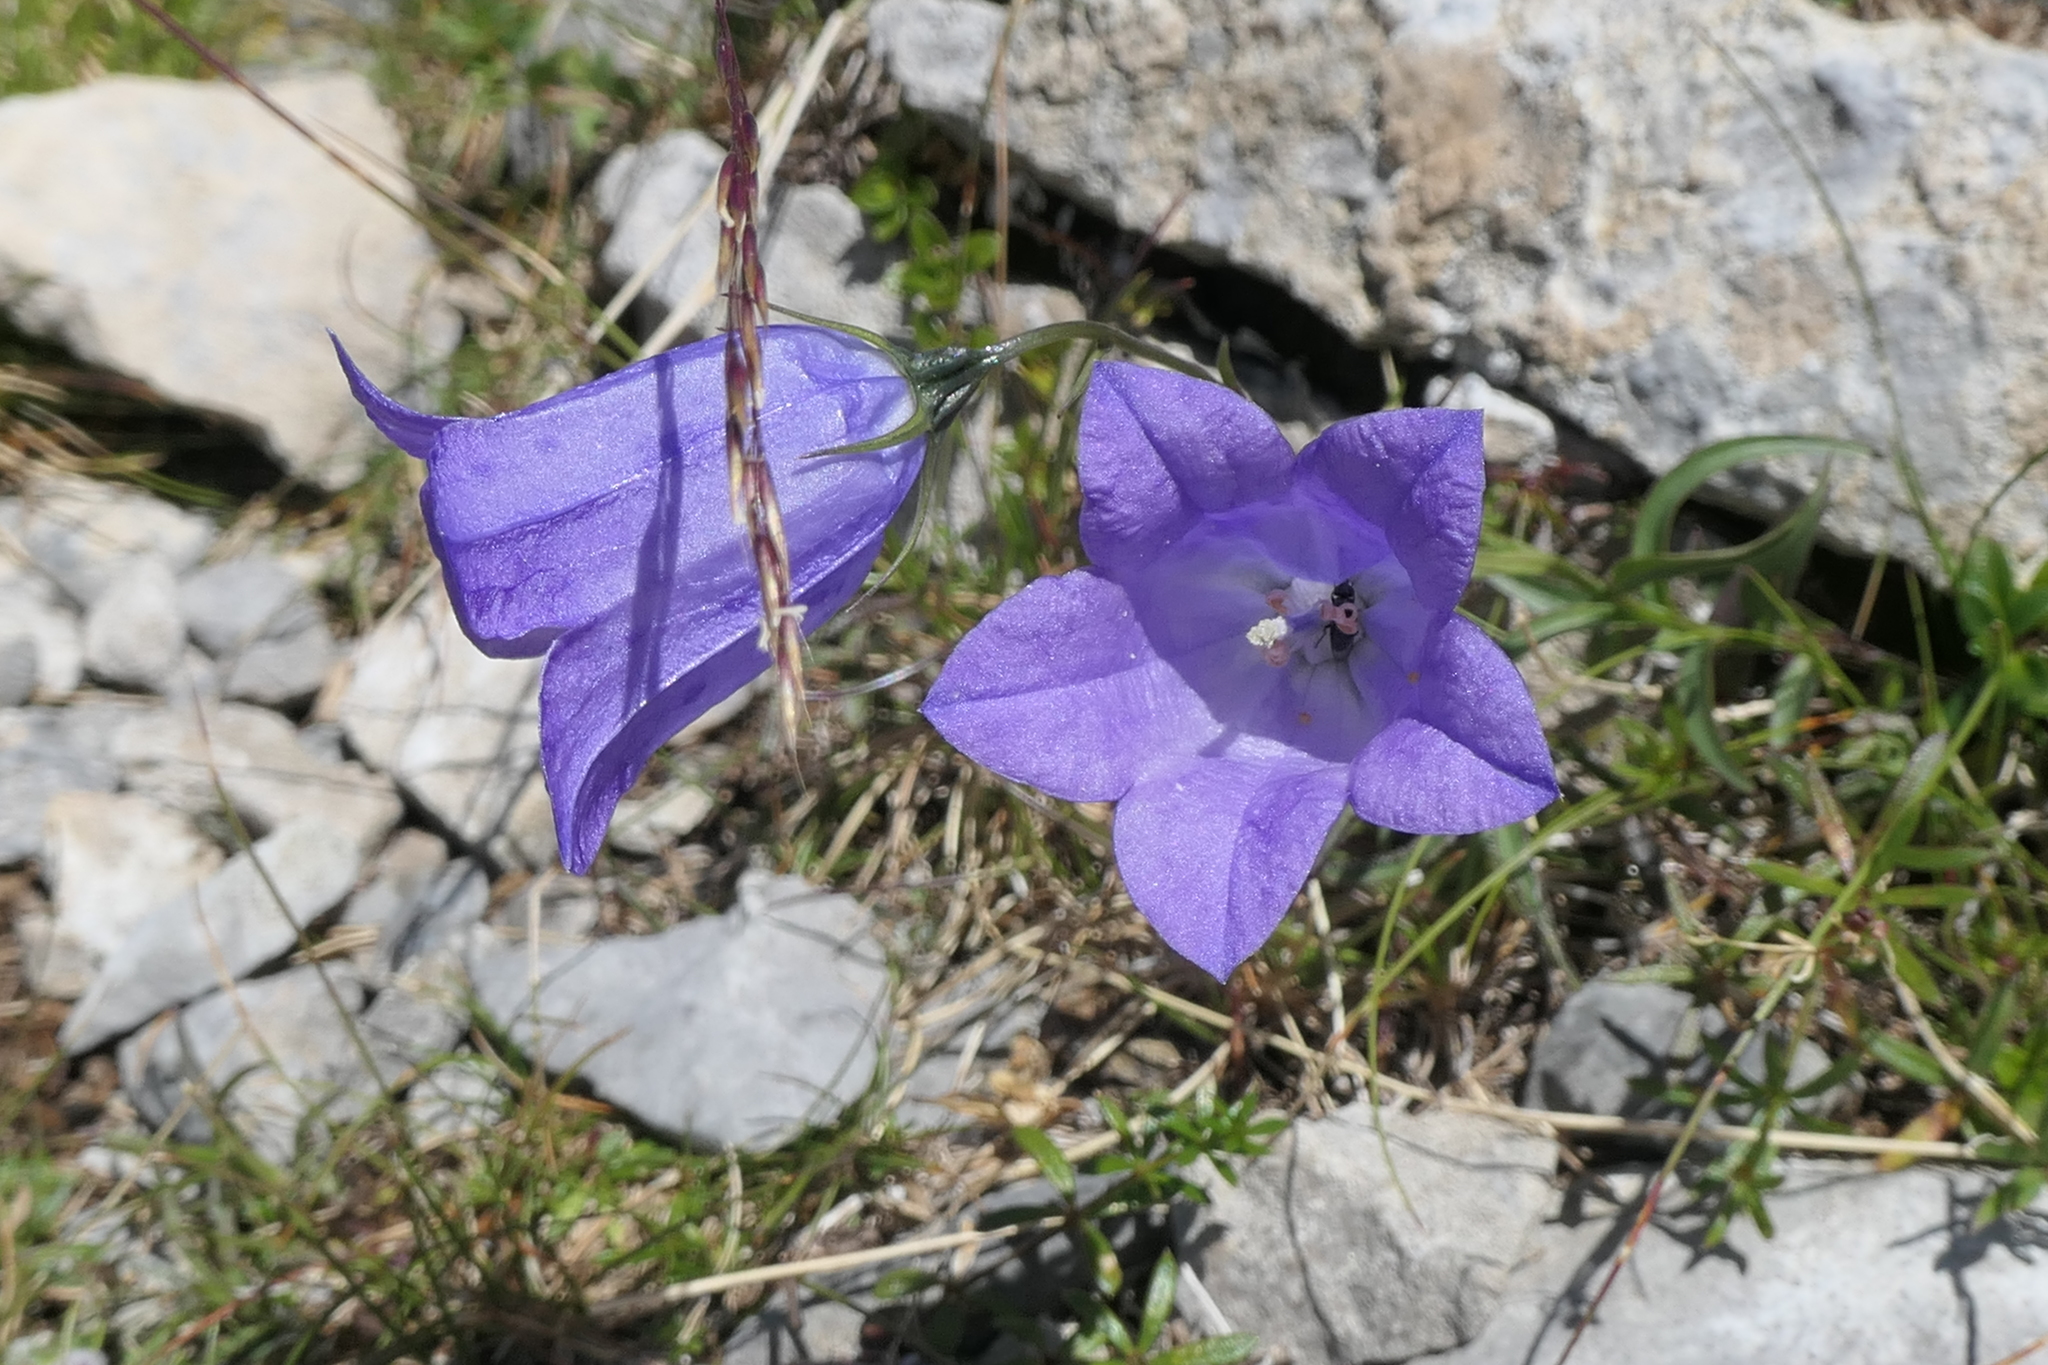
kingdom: Plantae
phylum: Tracheophyta
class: Magnoliopsida
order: Asterales
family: Campanulaceae
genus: Campanula
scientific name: Campanula scheuchzeri
